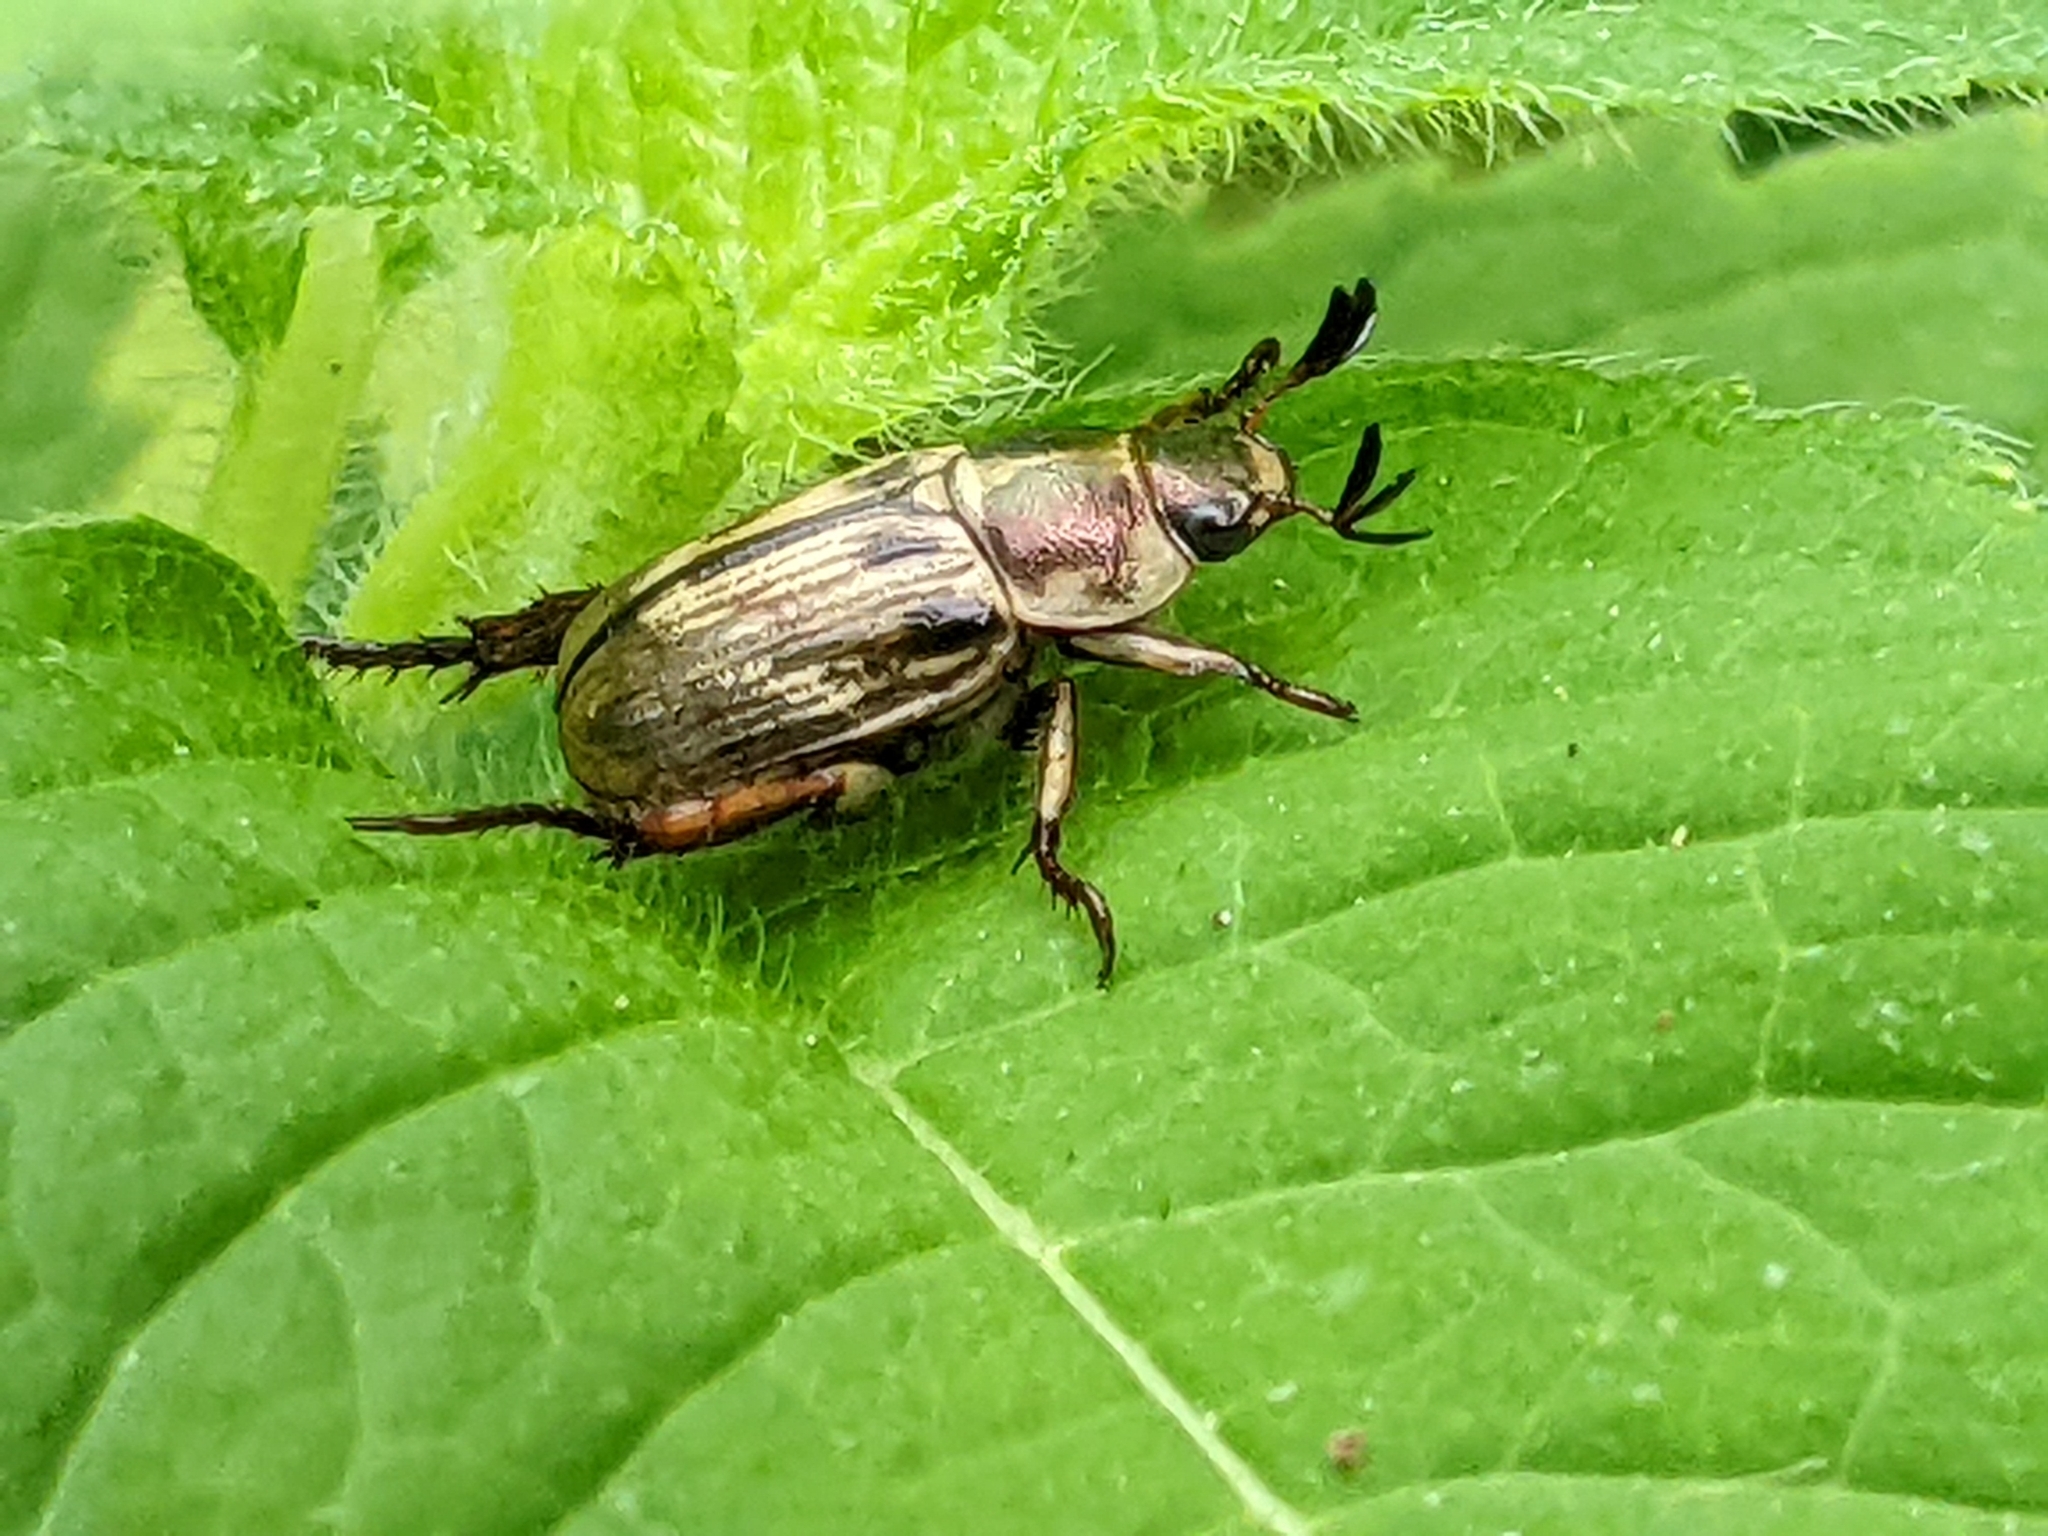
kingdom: Animalia
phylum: Arthropoda
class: Insecta
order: Coleoptera
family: Scarabaeidae
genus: Exomala
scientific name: Exomala orientalis
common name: Oriental beetle
